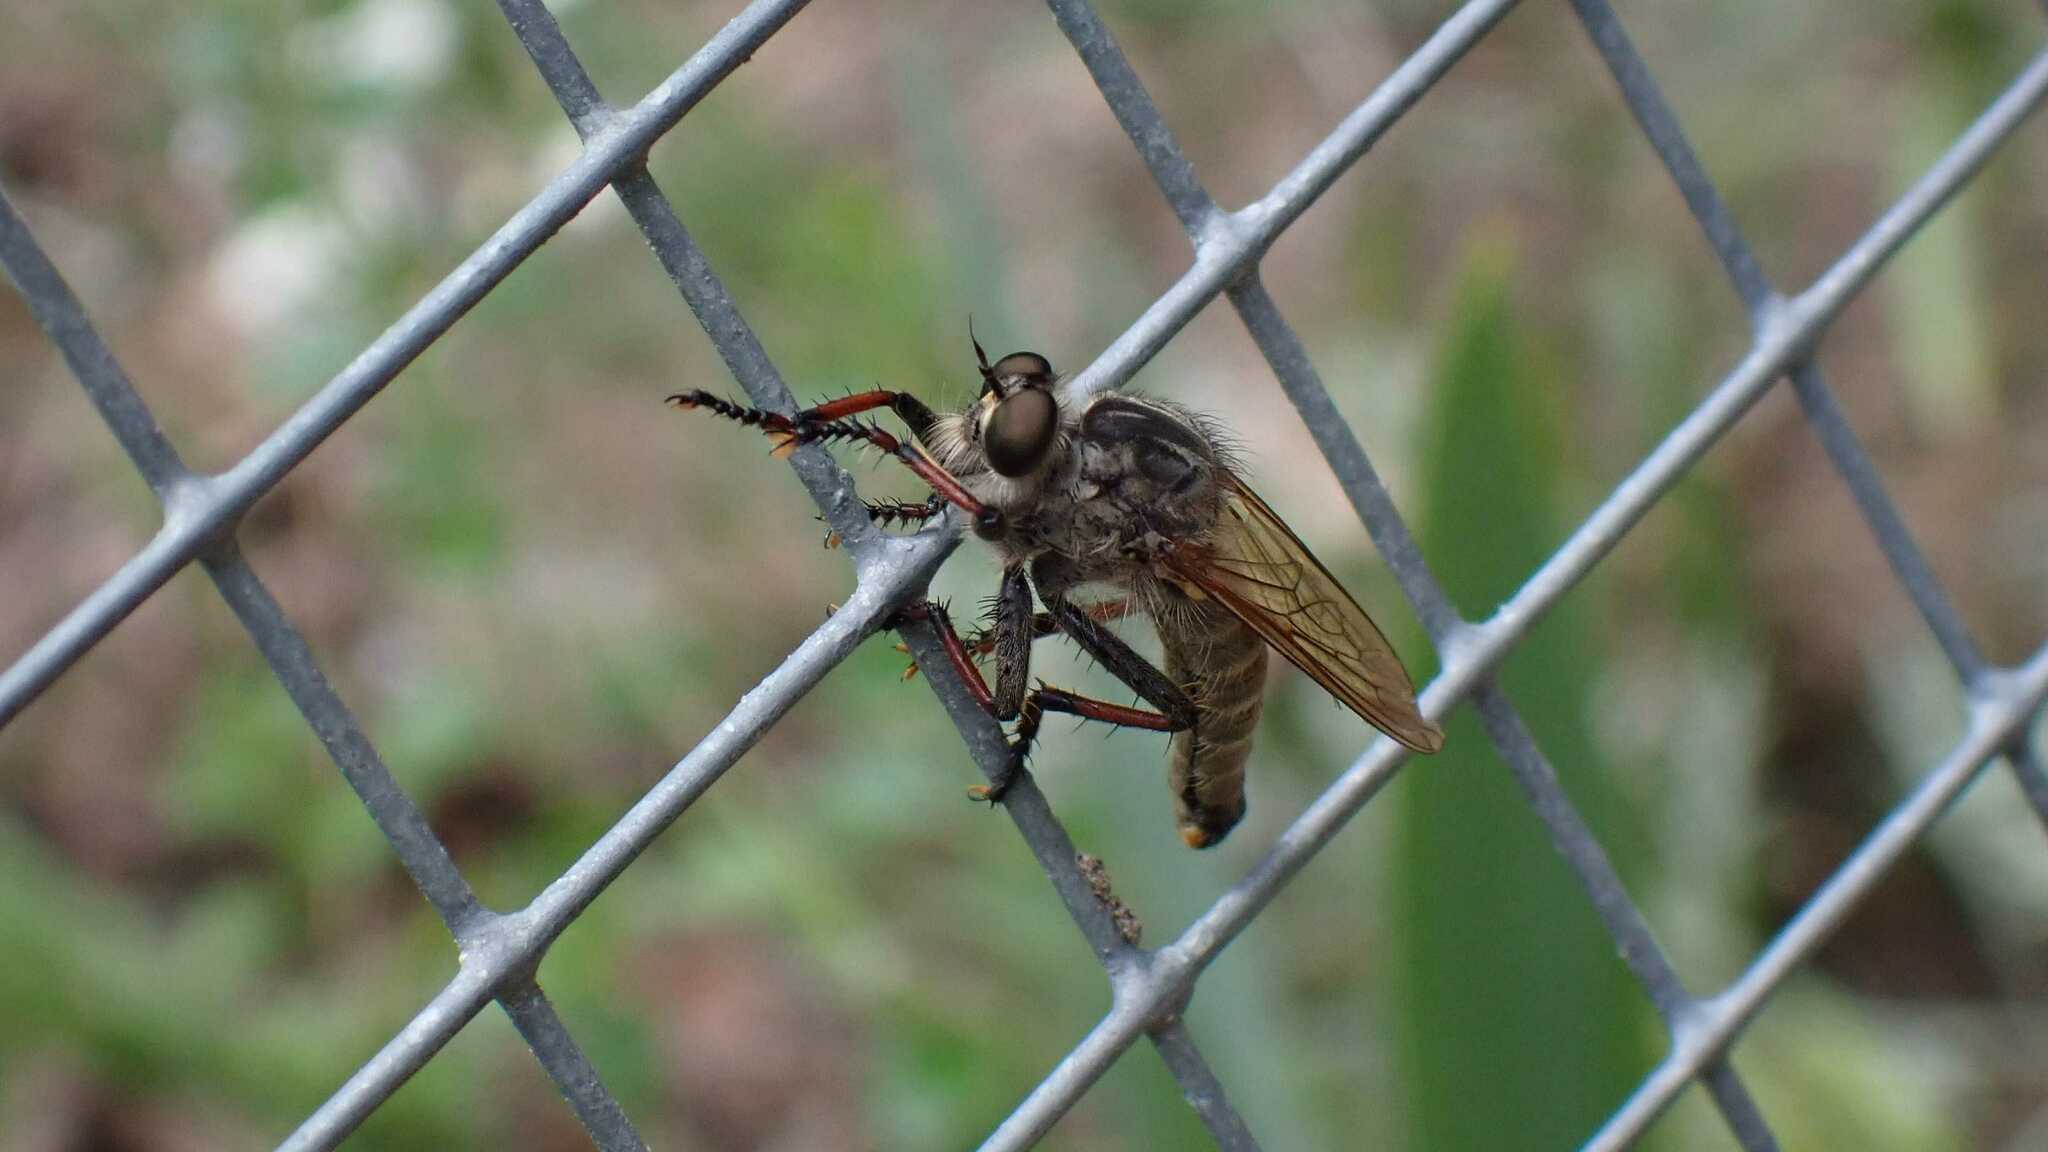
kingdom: Animalia
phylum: Arthropoda
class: Insecta
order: Diptera
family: Asilidae
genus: Antipalus
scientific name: Antipalus varipes
